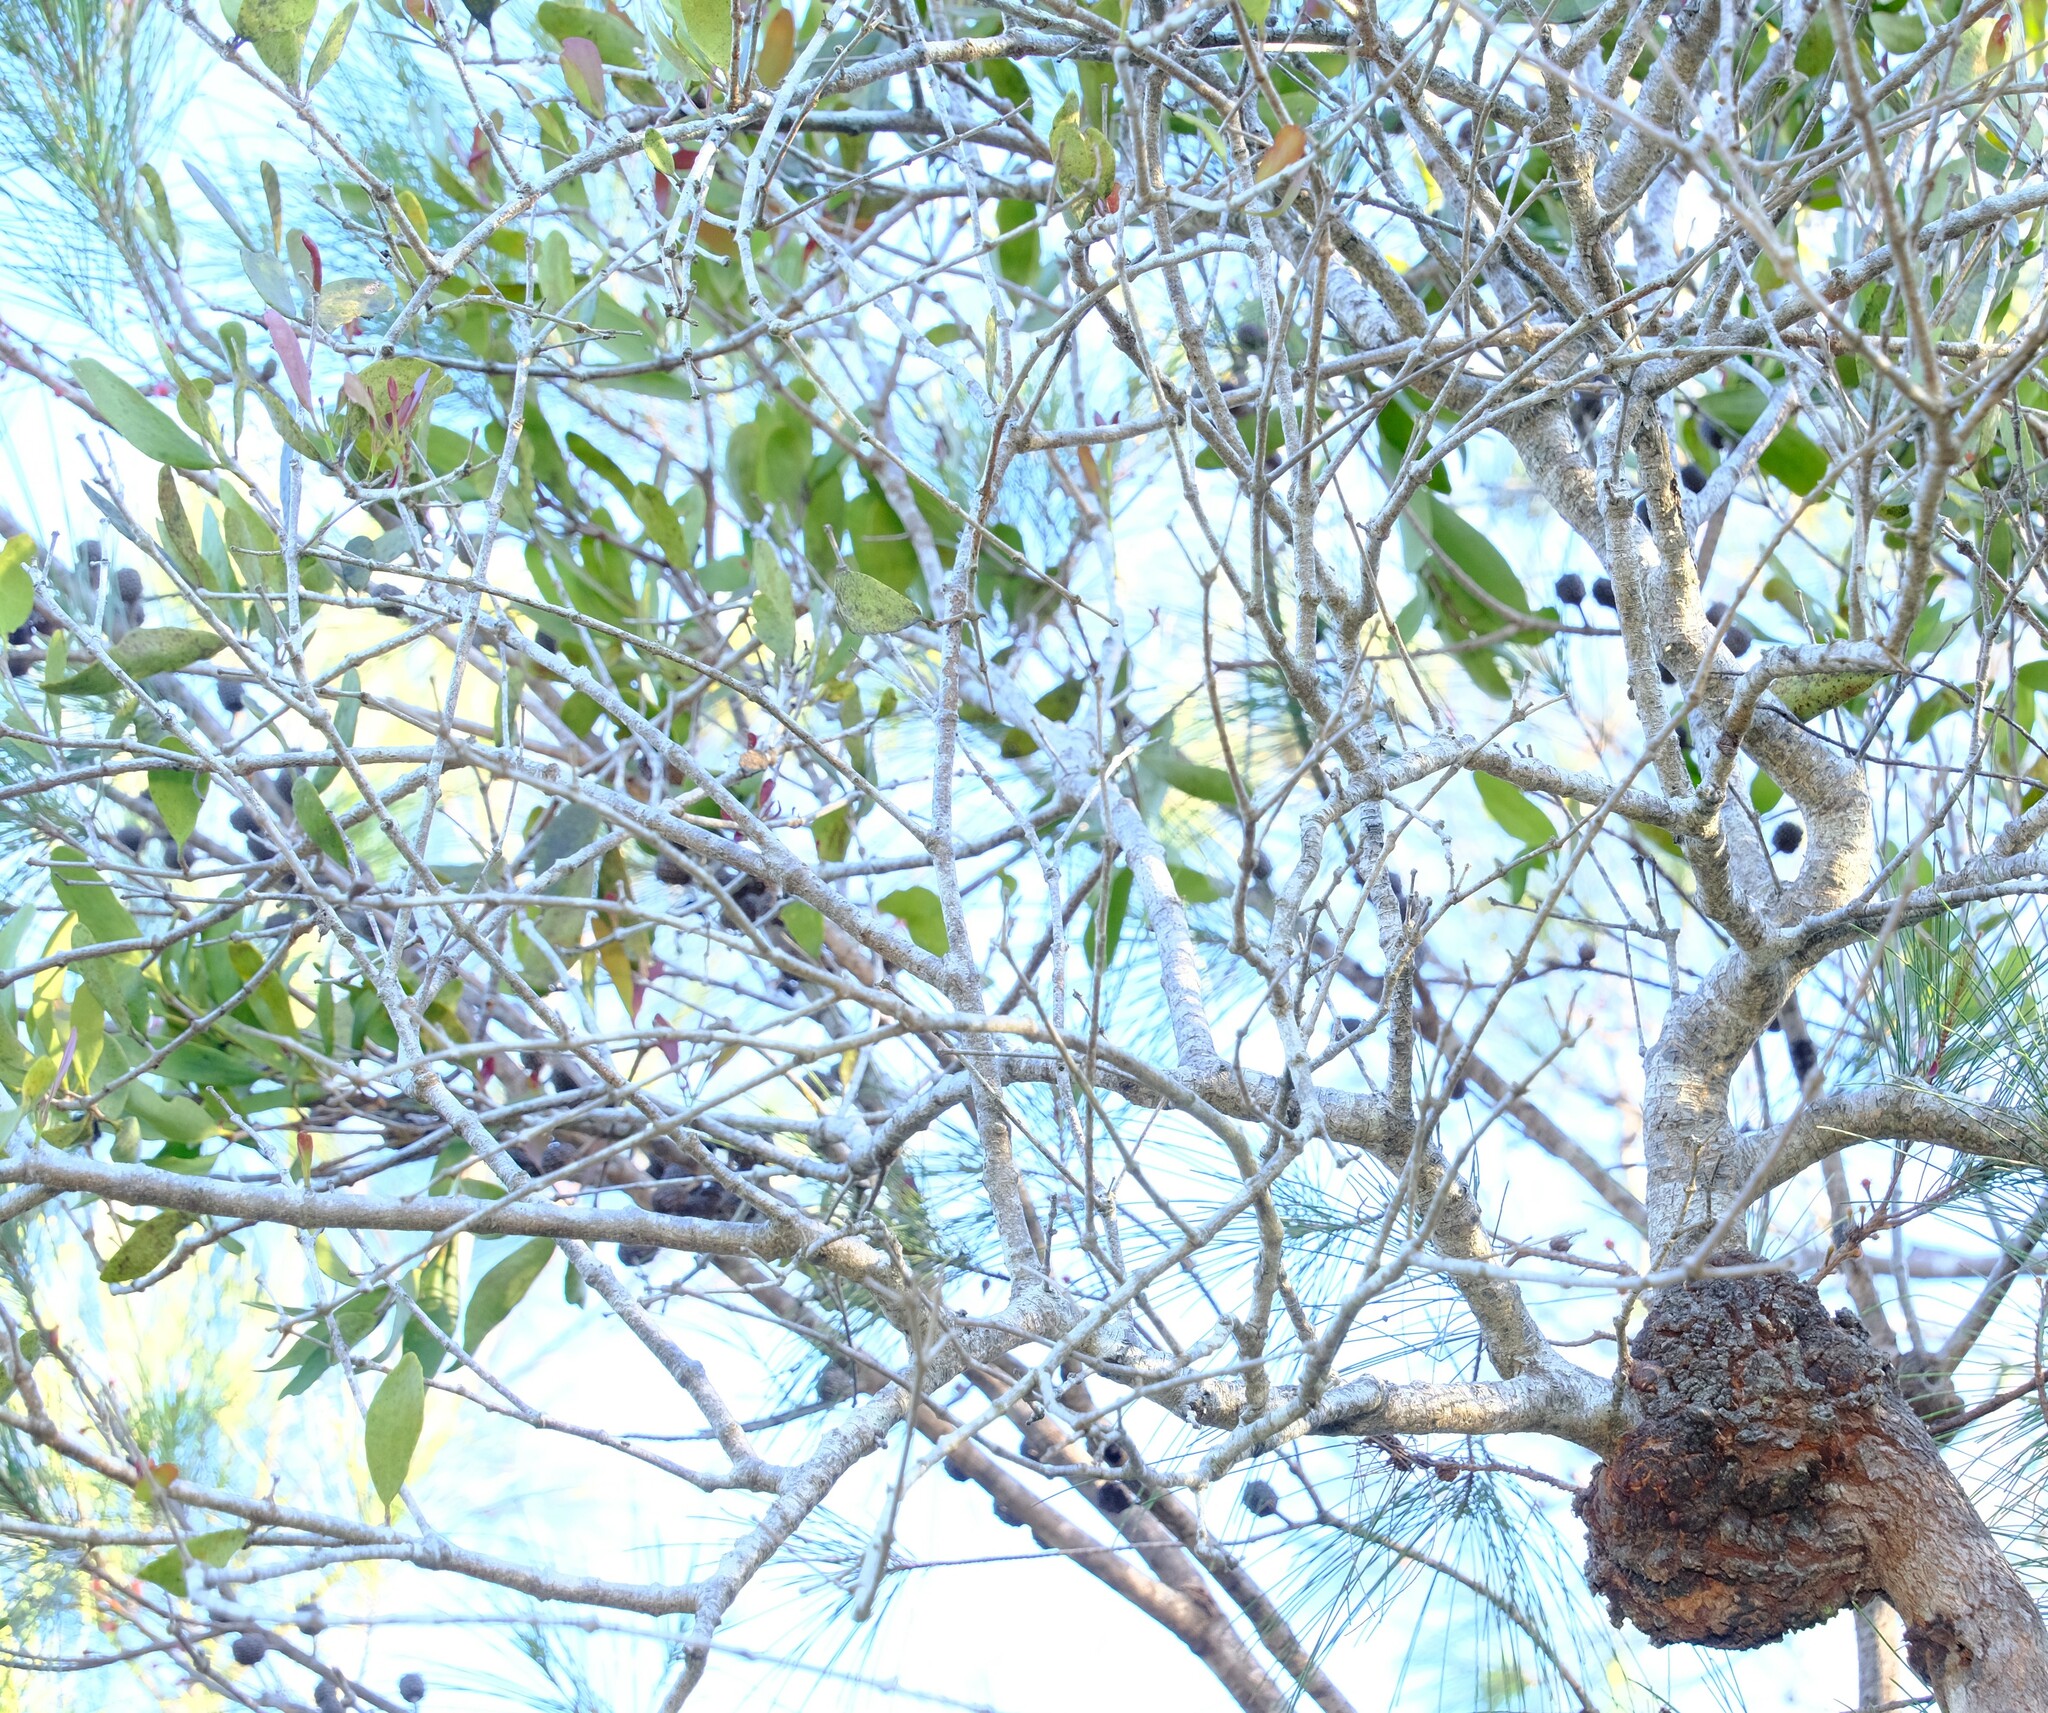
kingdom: Plantae
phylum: Tracheophyta
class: Magnoliopsida
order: Santalales
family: Loranthaceae
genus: Amyema
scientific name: Amyema congener
